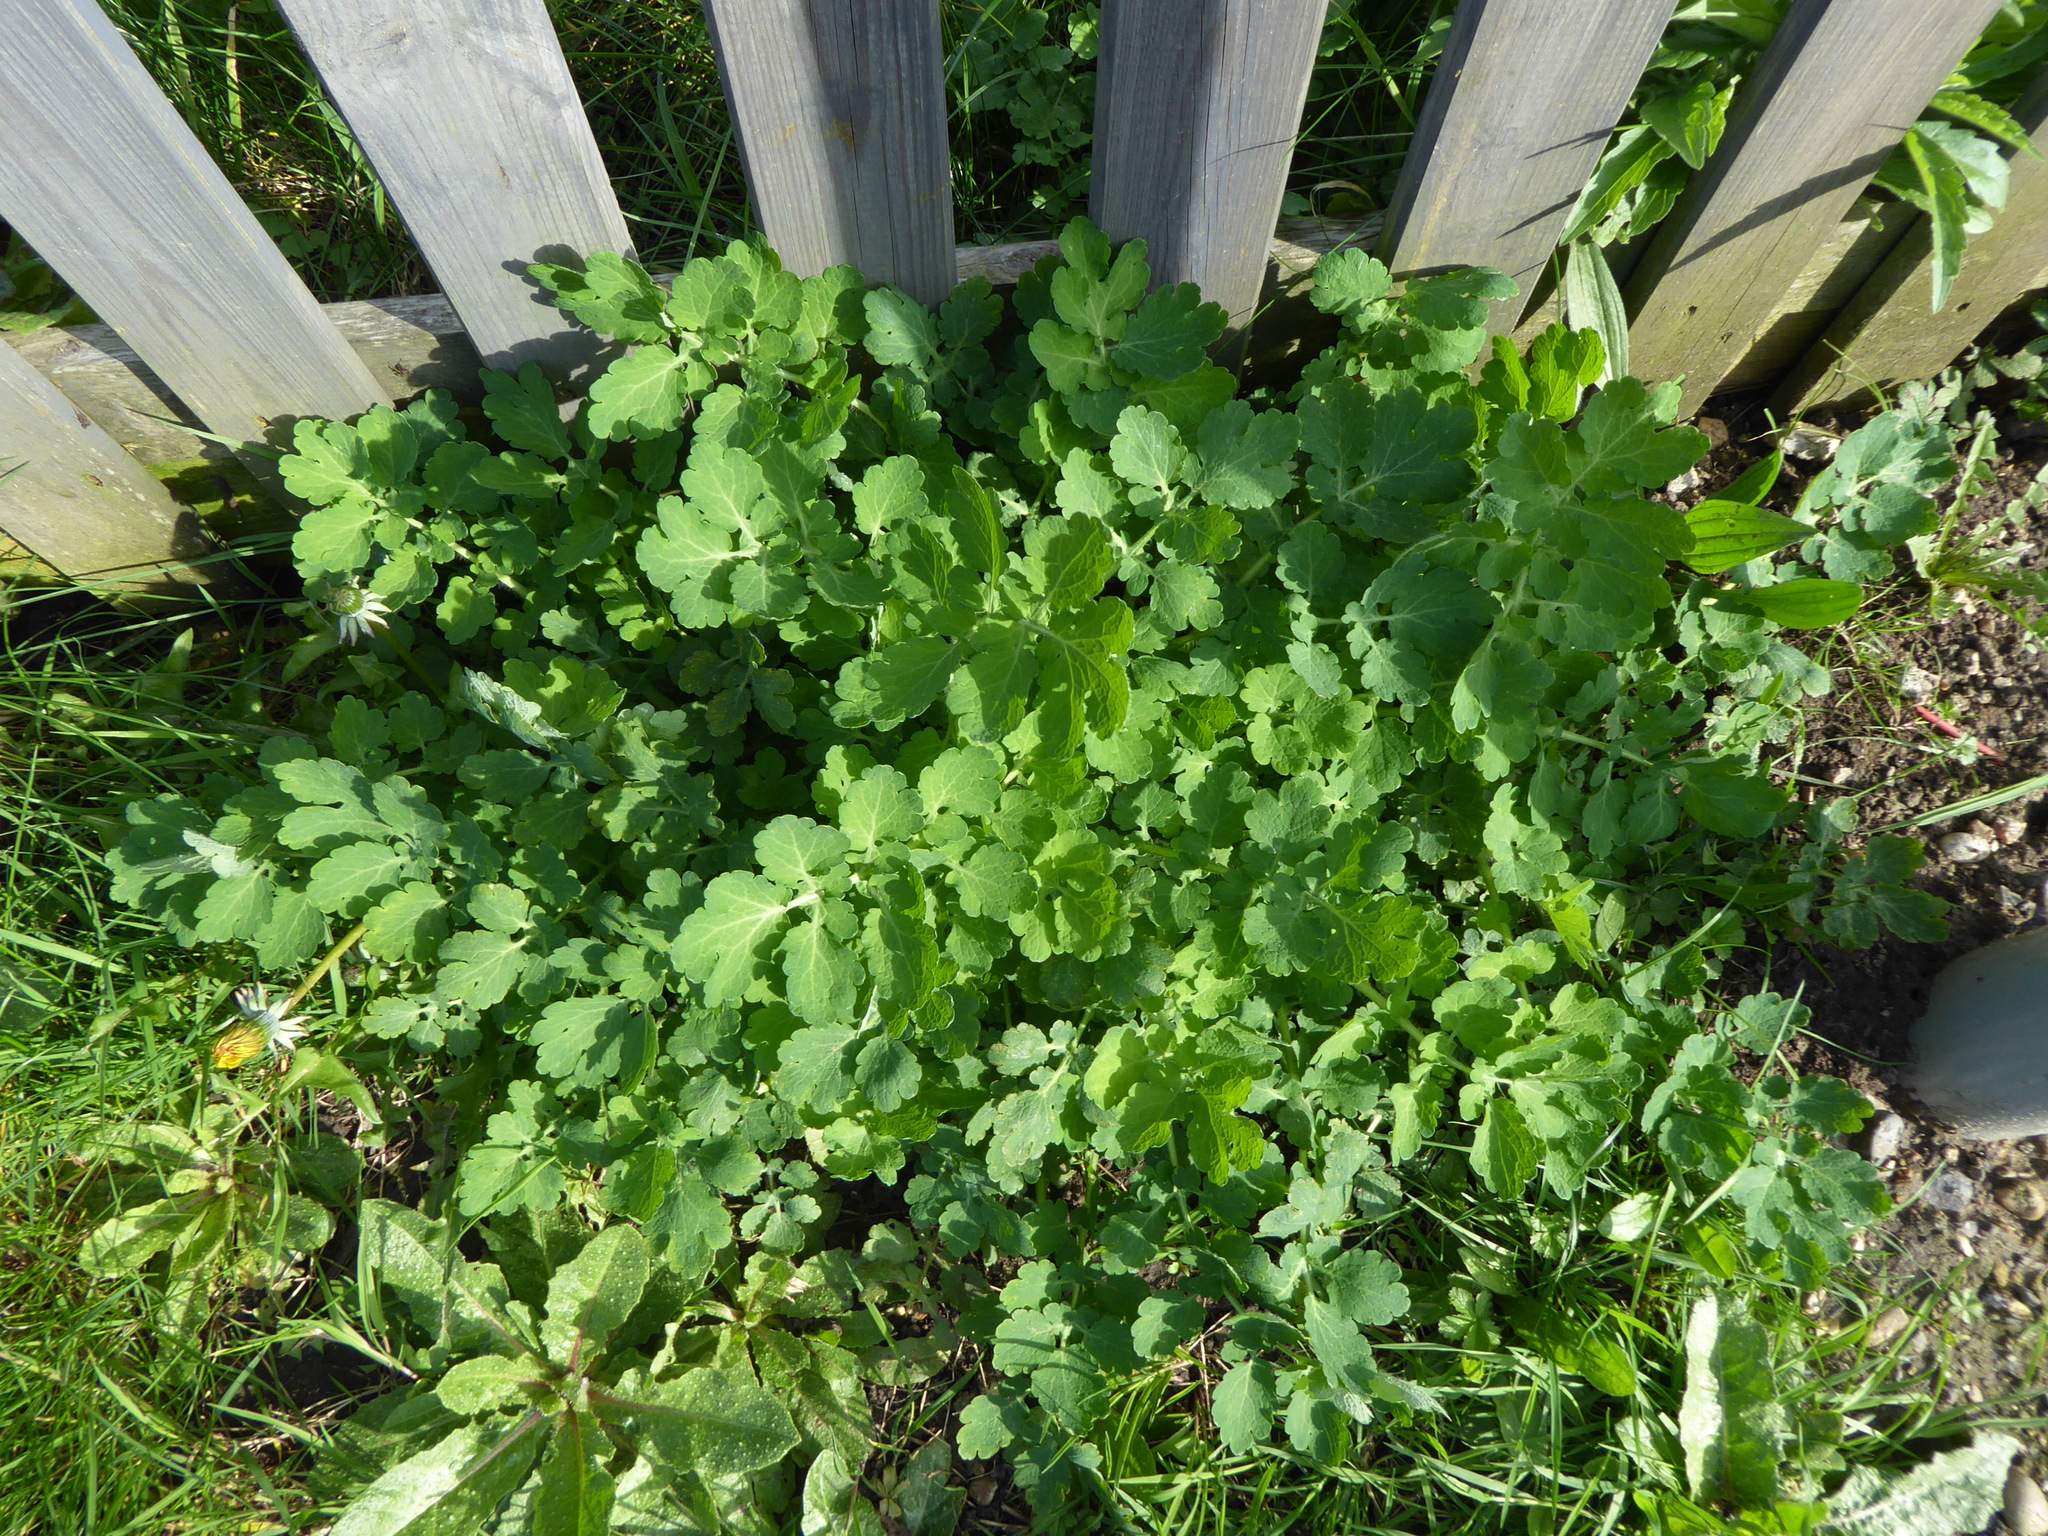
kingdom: Plantae
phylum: Tracheophyta
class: Magnoliopsida
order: Ranunculales
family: Papaveraceae
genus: Chelidonium
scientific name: Chelidonium majus
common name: Greater celandine
